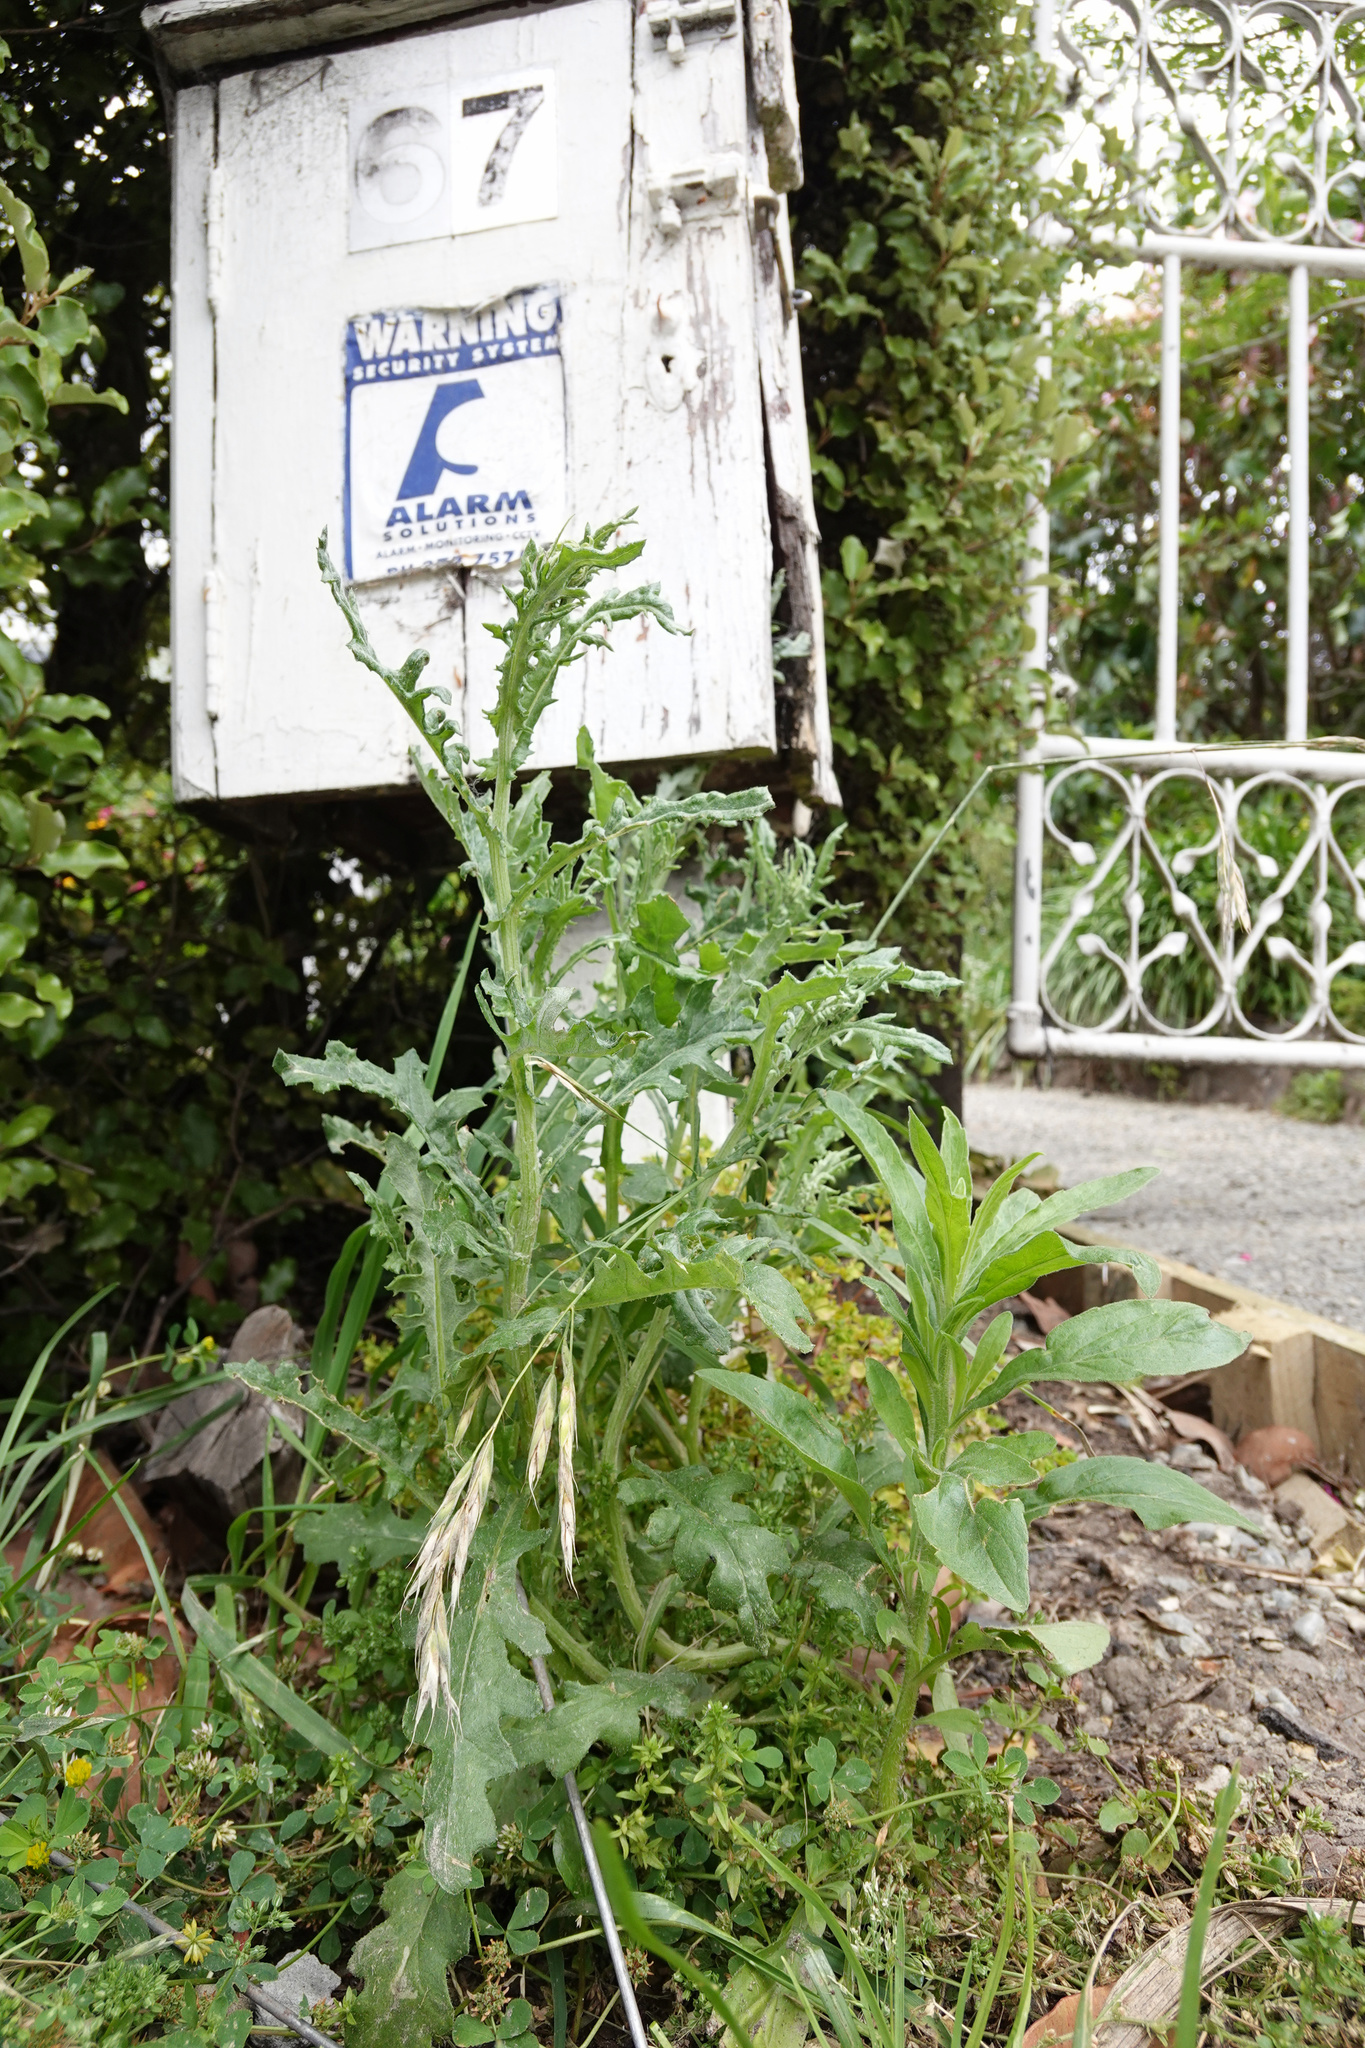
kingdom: Plantae
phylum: Tracheophyta
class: Magnoliopsida
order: Asterales
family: Asteraceae
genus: Senecio
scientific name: Senecio glomeratus
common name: Cutleaf burnweed
